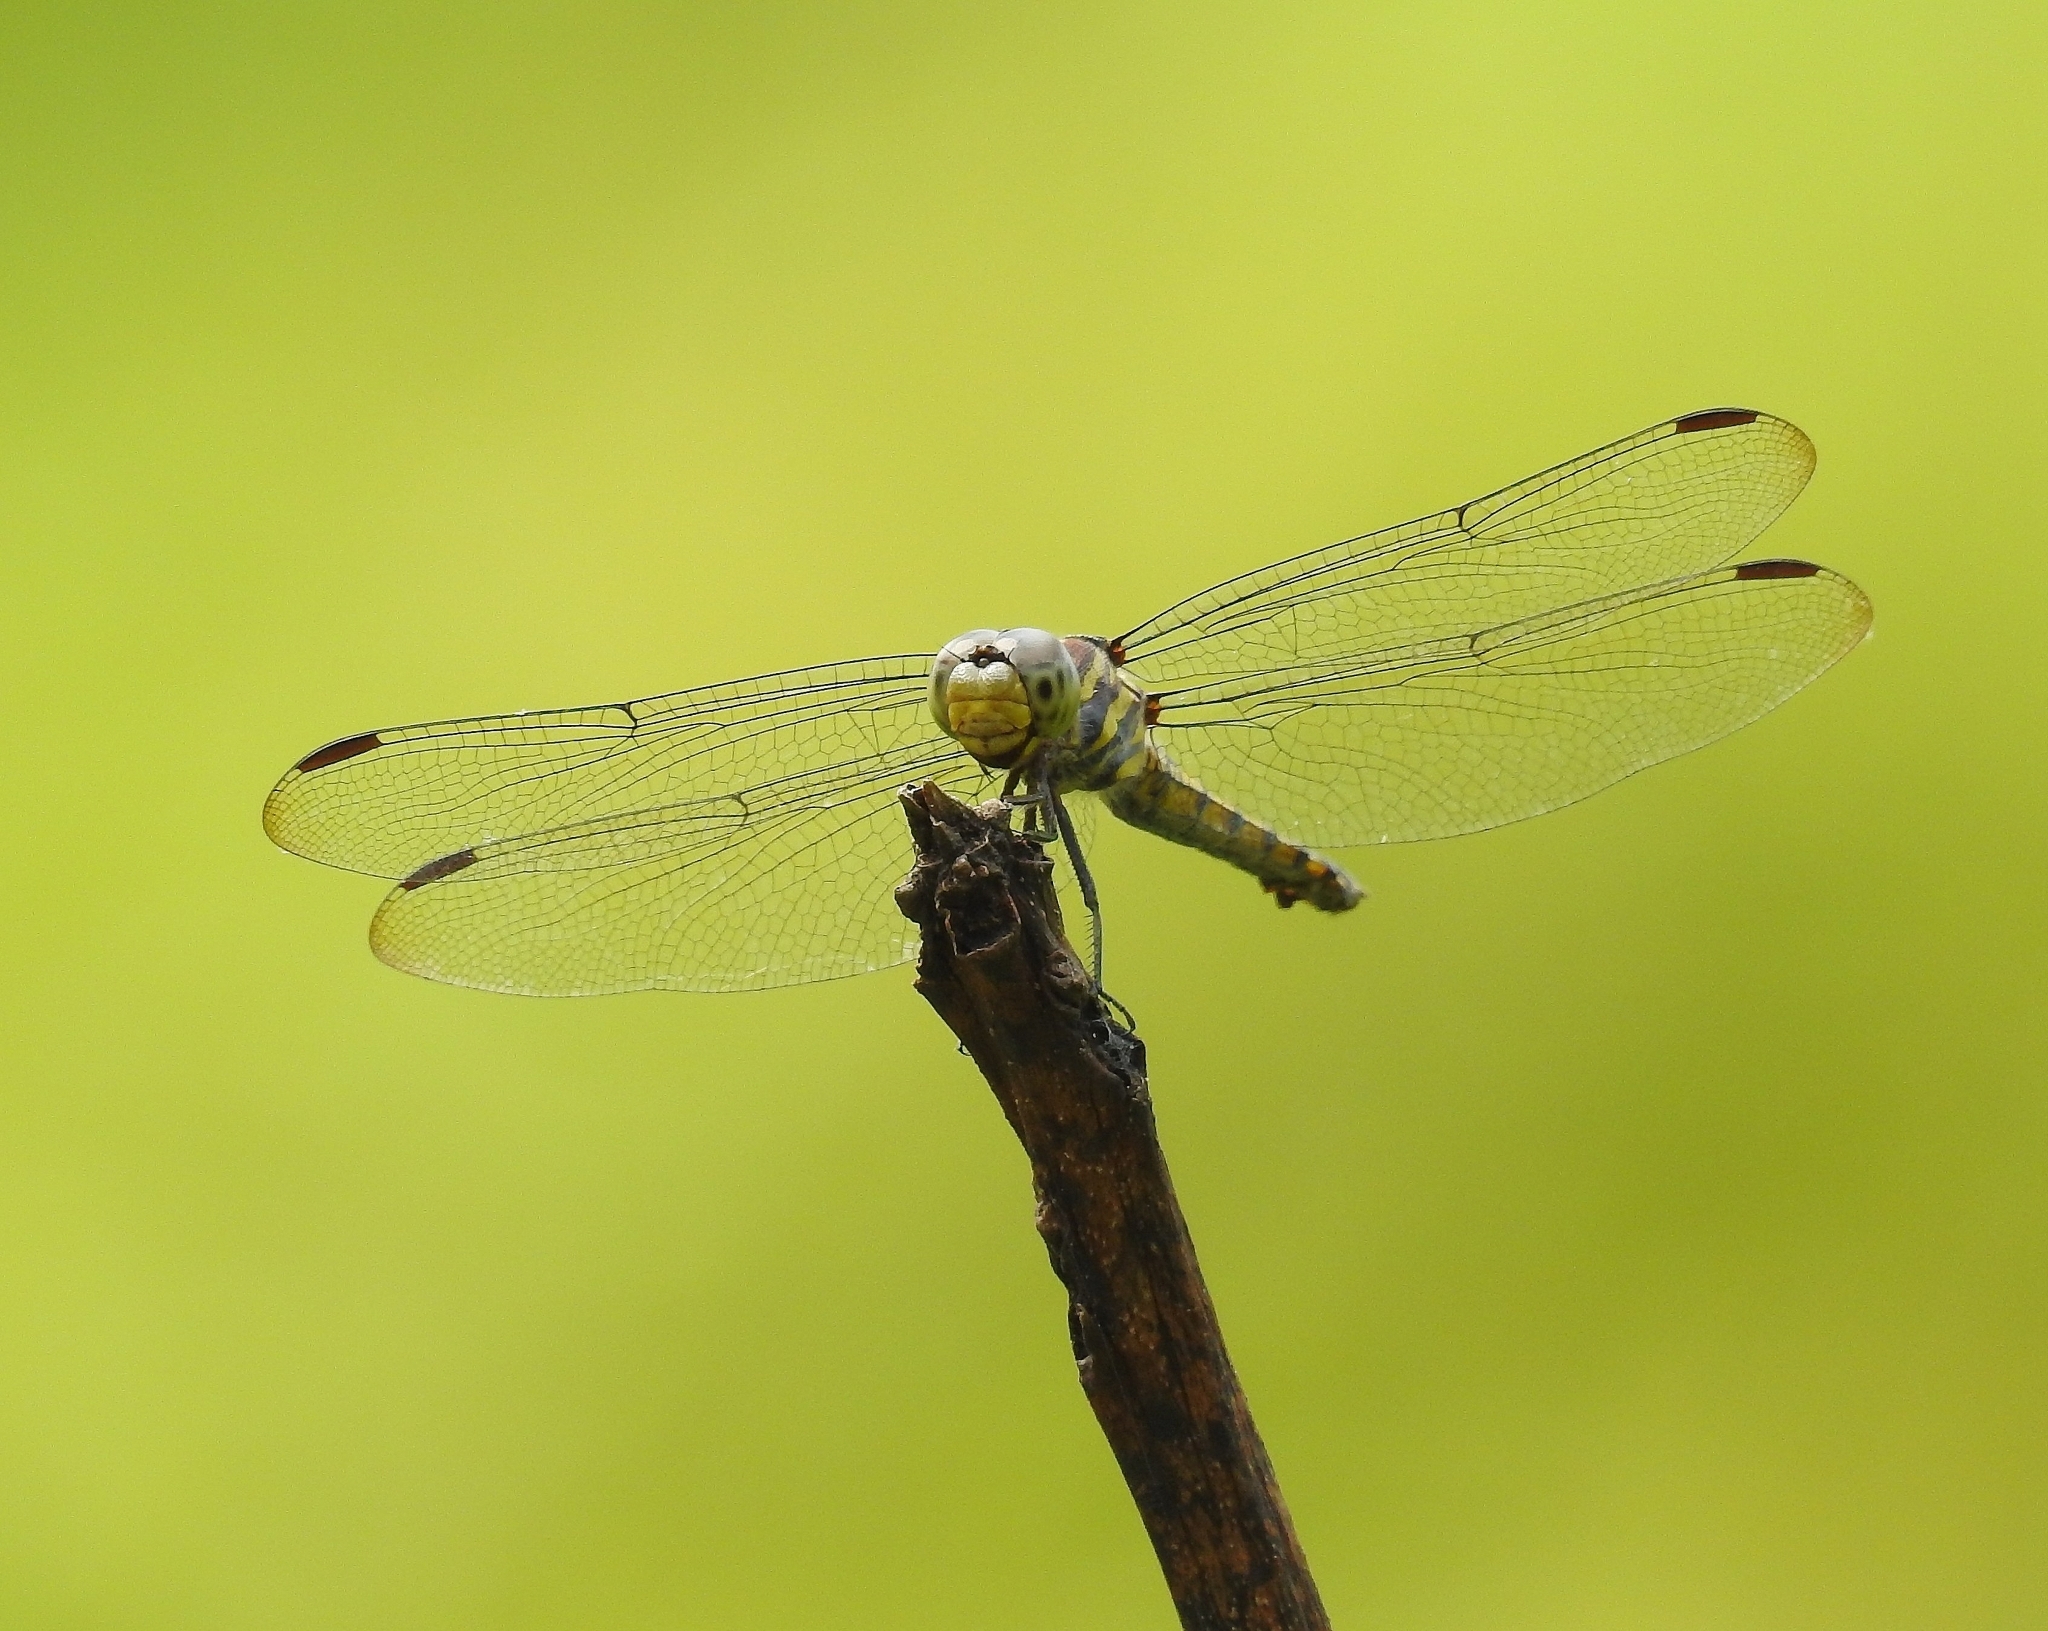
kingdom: Animalia
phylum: Arthropoda
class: Insecta
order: Odonata
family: Libellulidae
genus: Potamarcha
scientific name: Potamarcha congener
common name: Blue chaser
